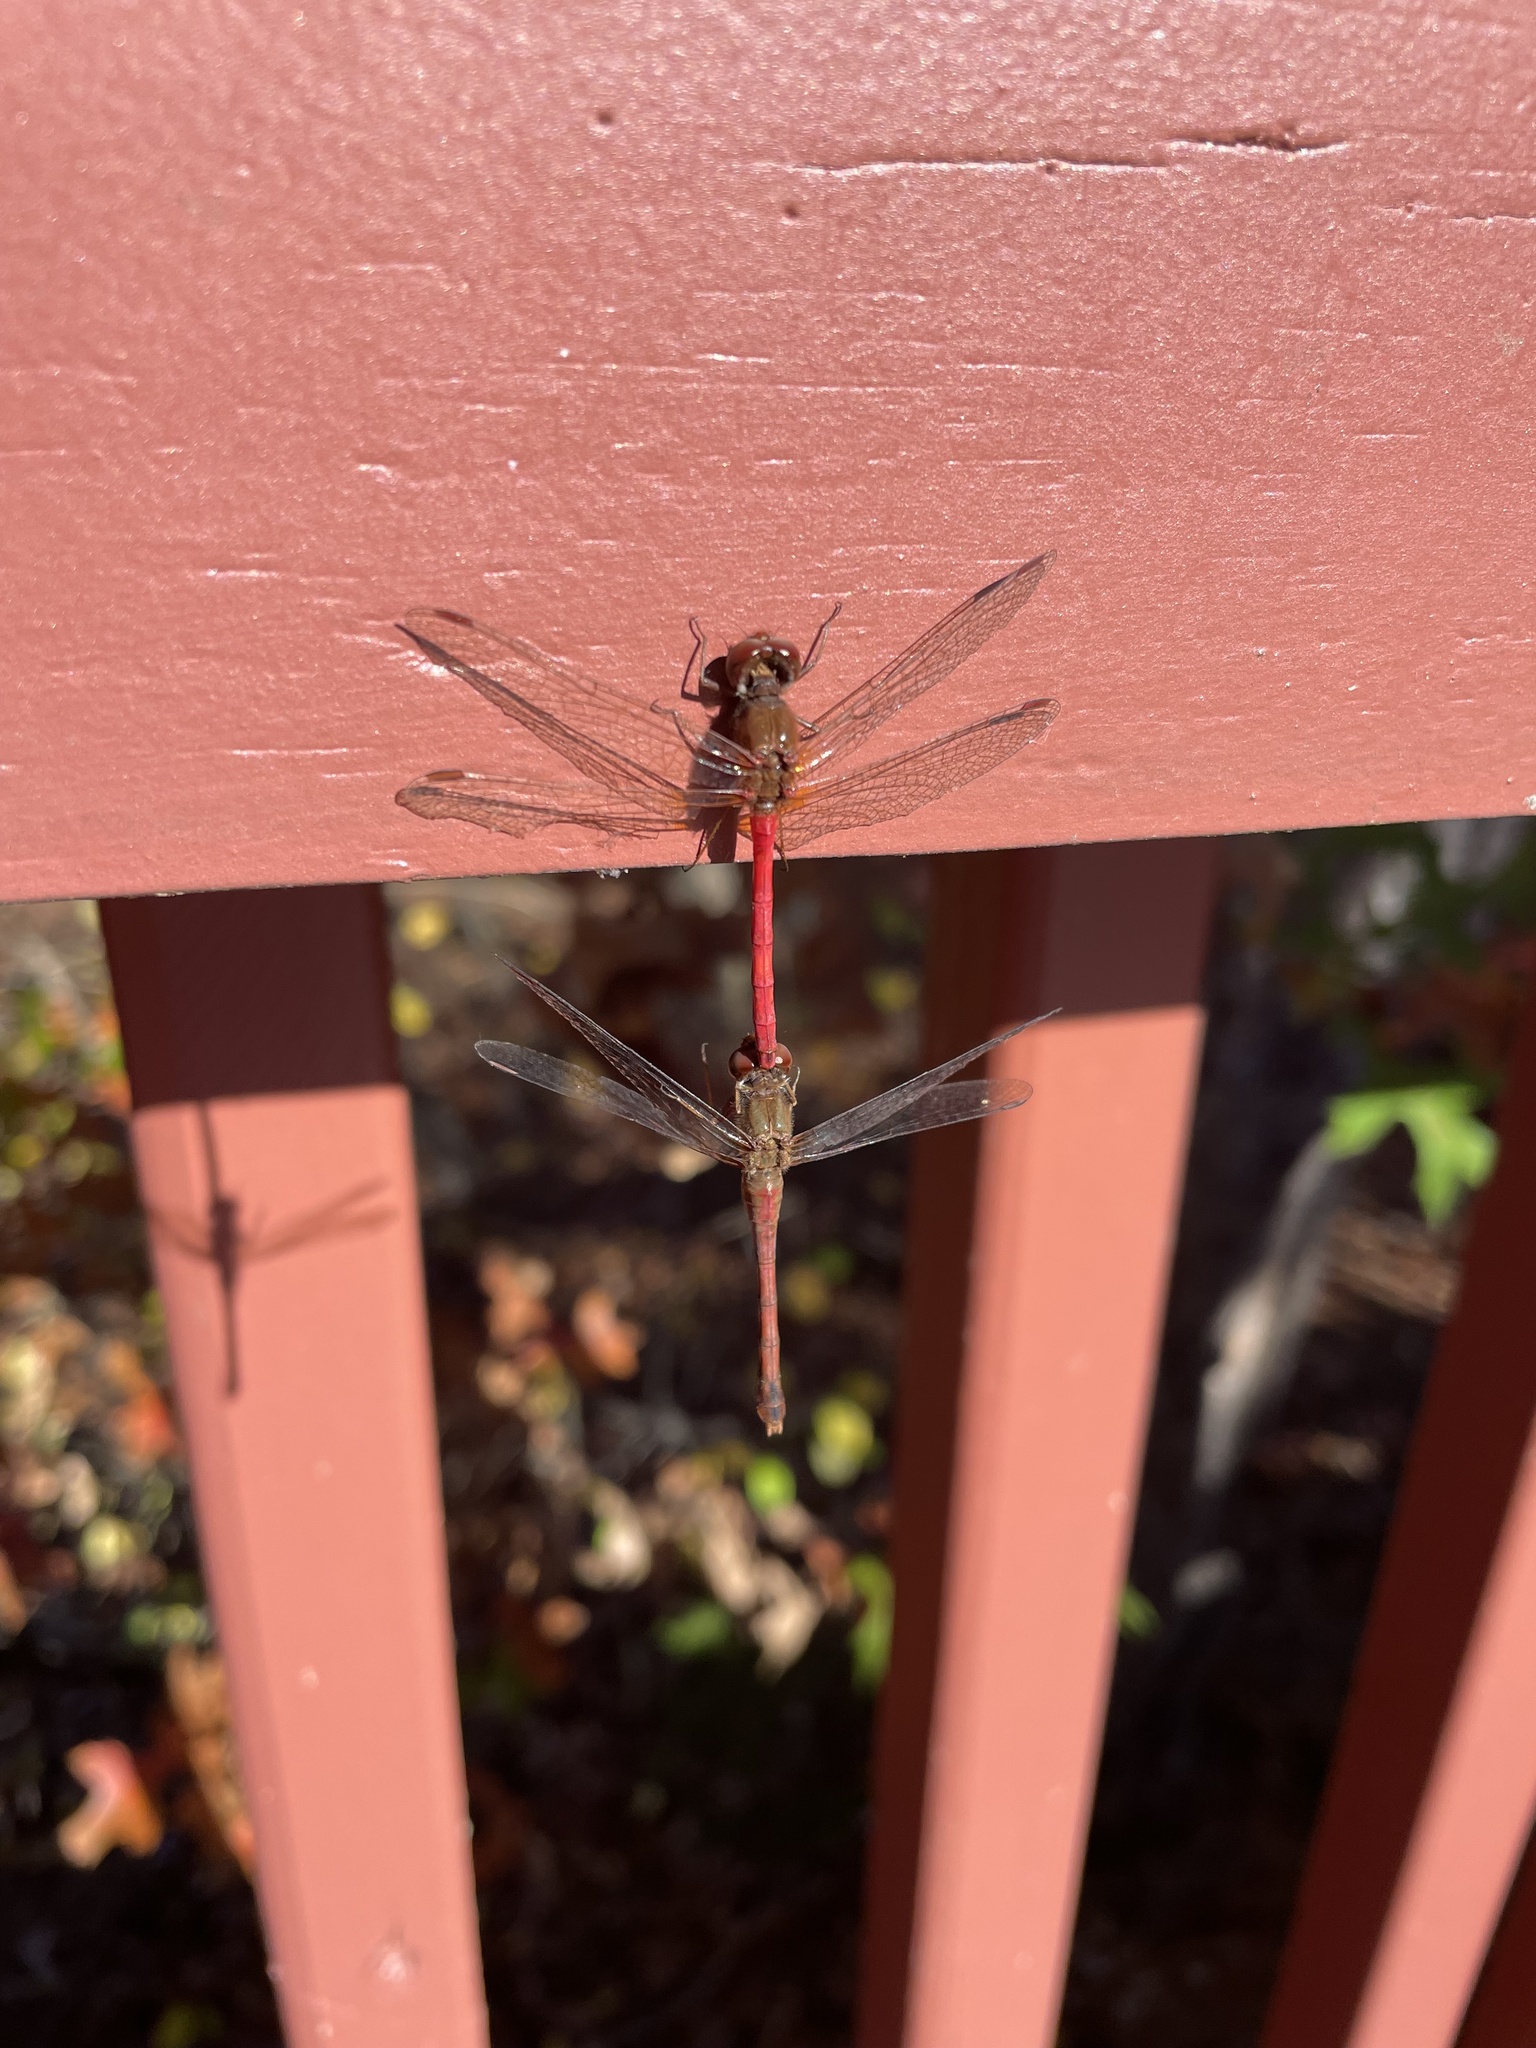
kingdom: Animalia
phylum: Arthropoda
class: Insecta
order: Odonata
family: Libellulidae
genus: Sympetrum
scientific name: Sympetrum vicinum
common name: Autumn meadowhawk
